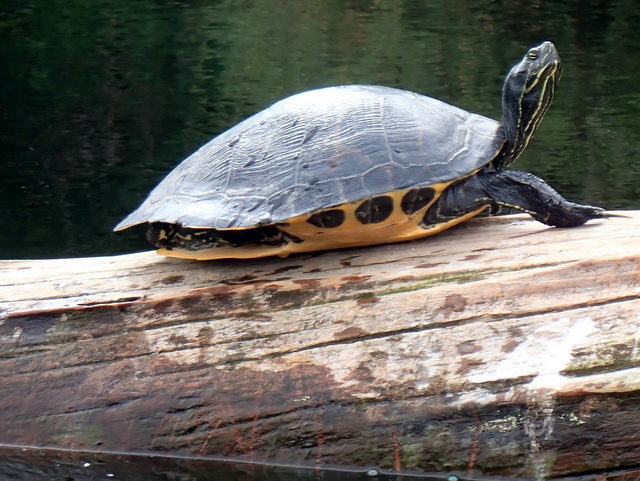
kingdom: Animalia
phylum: Chordata
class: Testudines
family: Emydidae
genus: Pseudemys
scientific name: Pseudemys concinna
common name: Eastern river cooter
